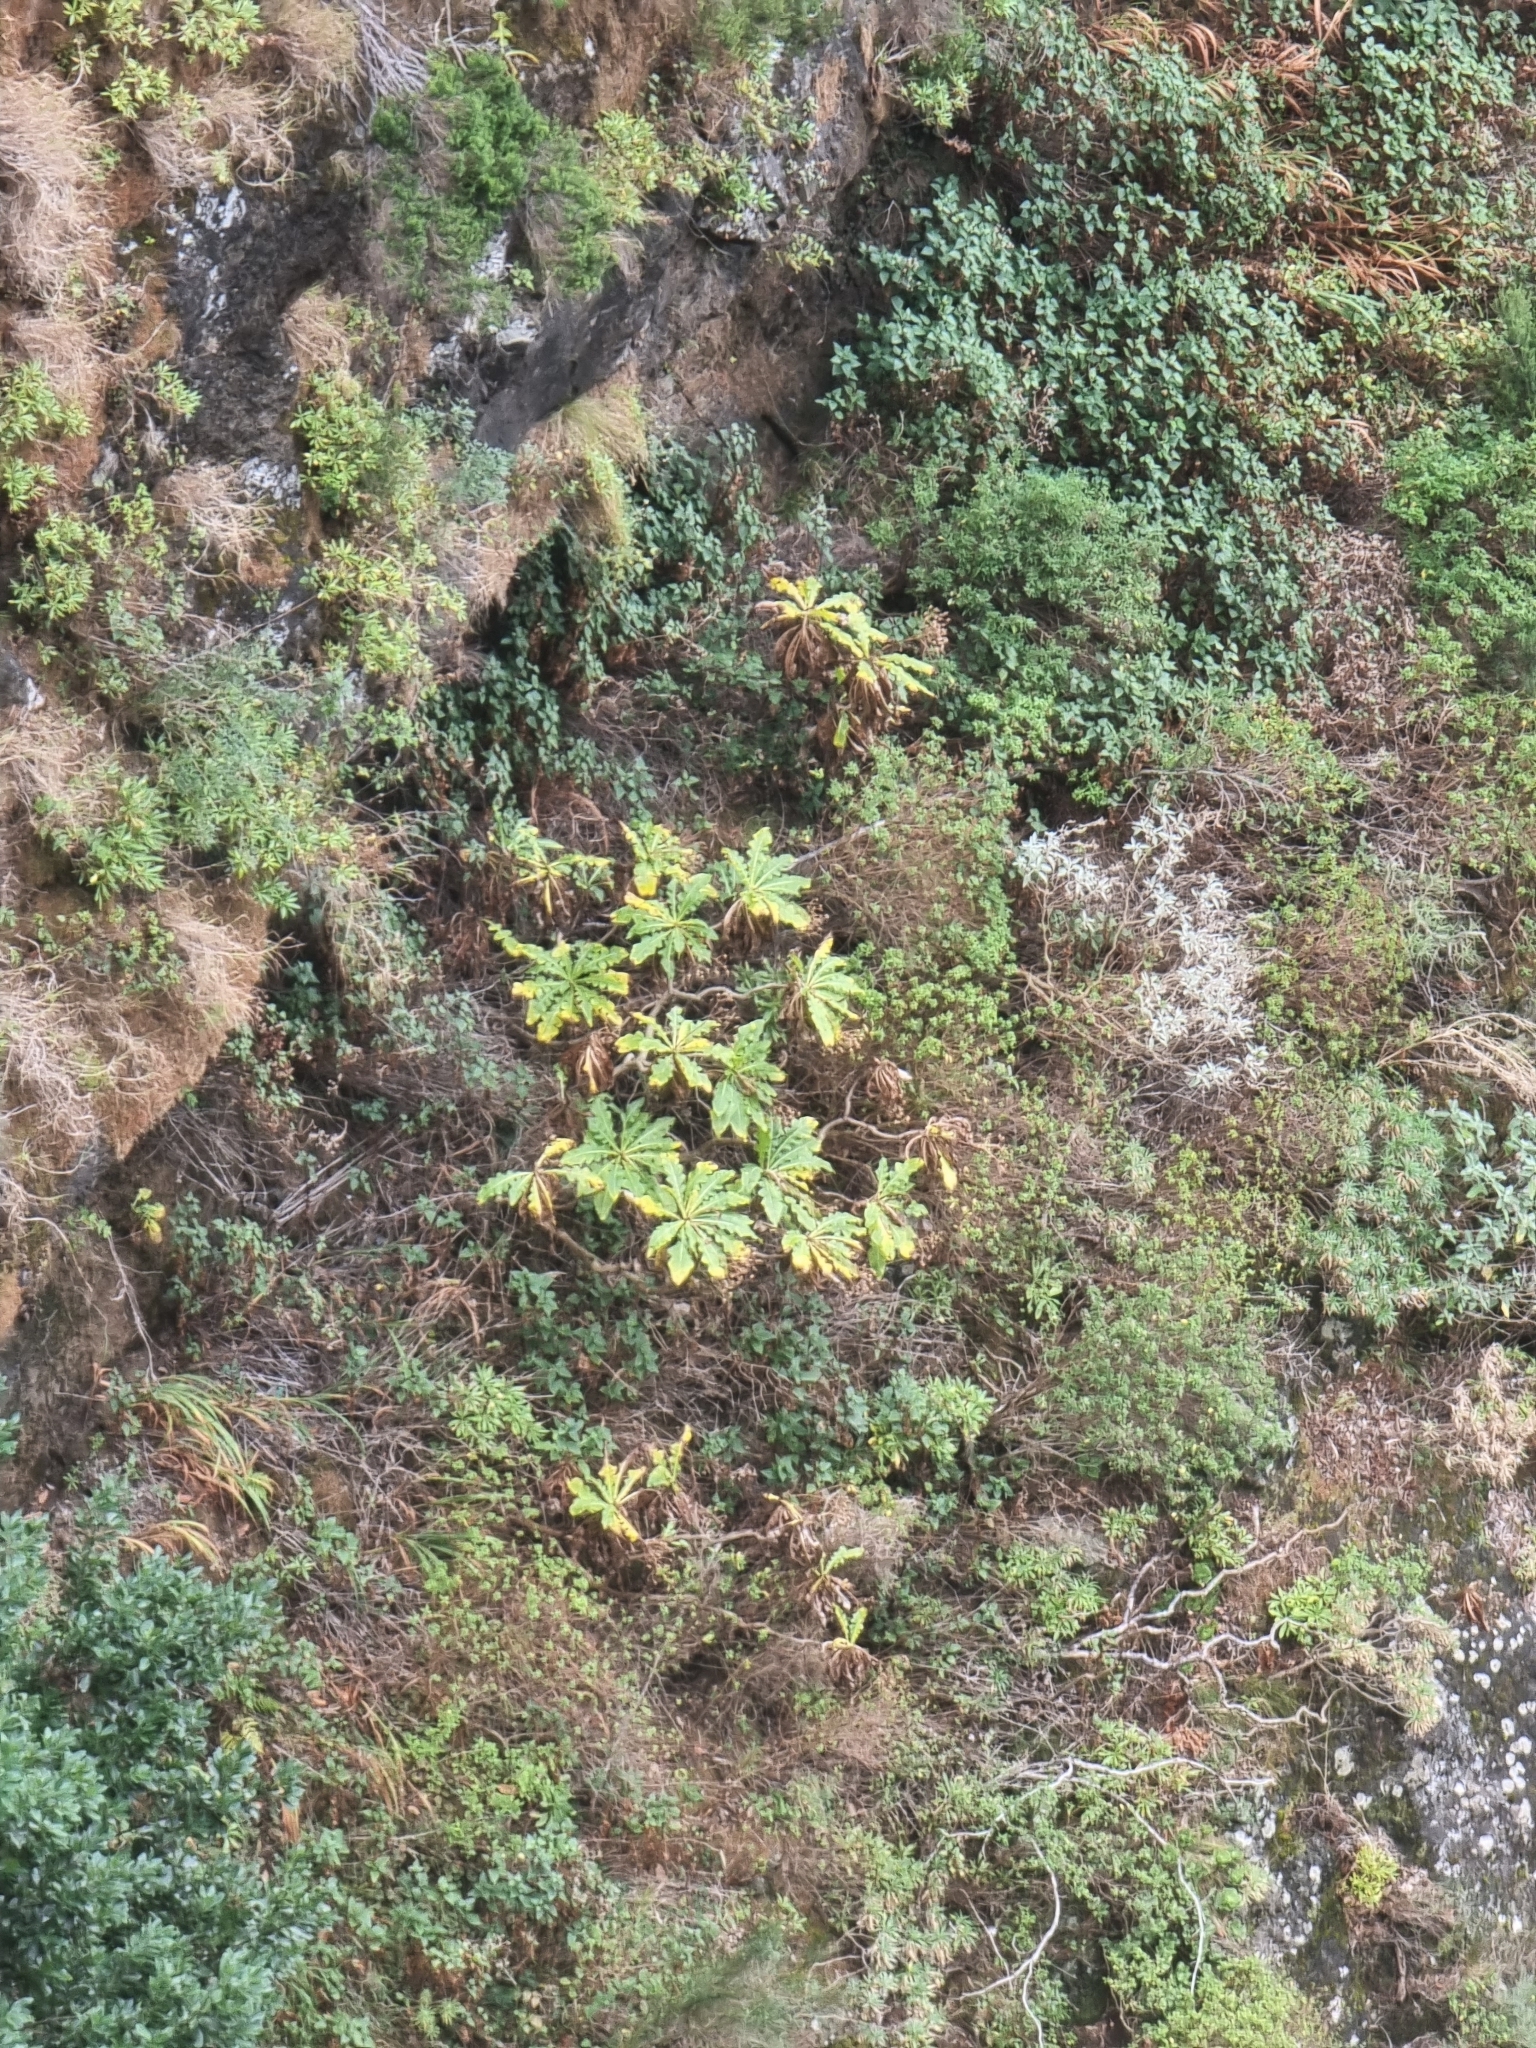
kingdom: Plantae
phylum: Tracheophyta
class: Magnoliopsida
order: Asterales
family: Asteraceae
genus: Sonchus
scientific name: Sonchus fruticosus
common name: Shrubby sow-thistle
